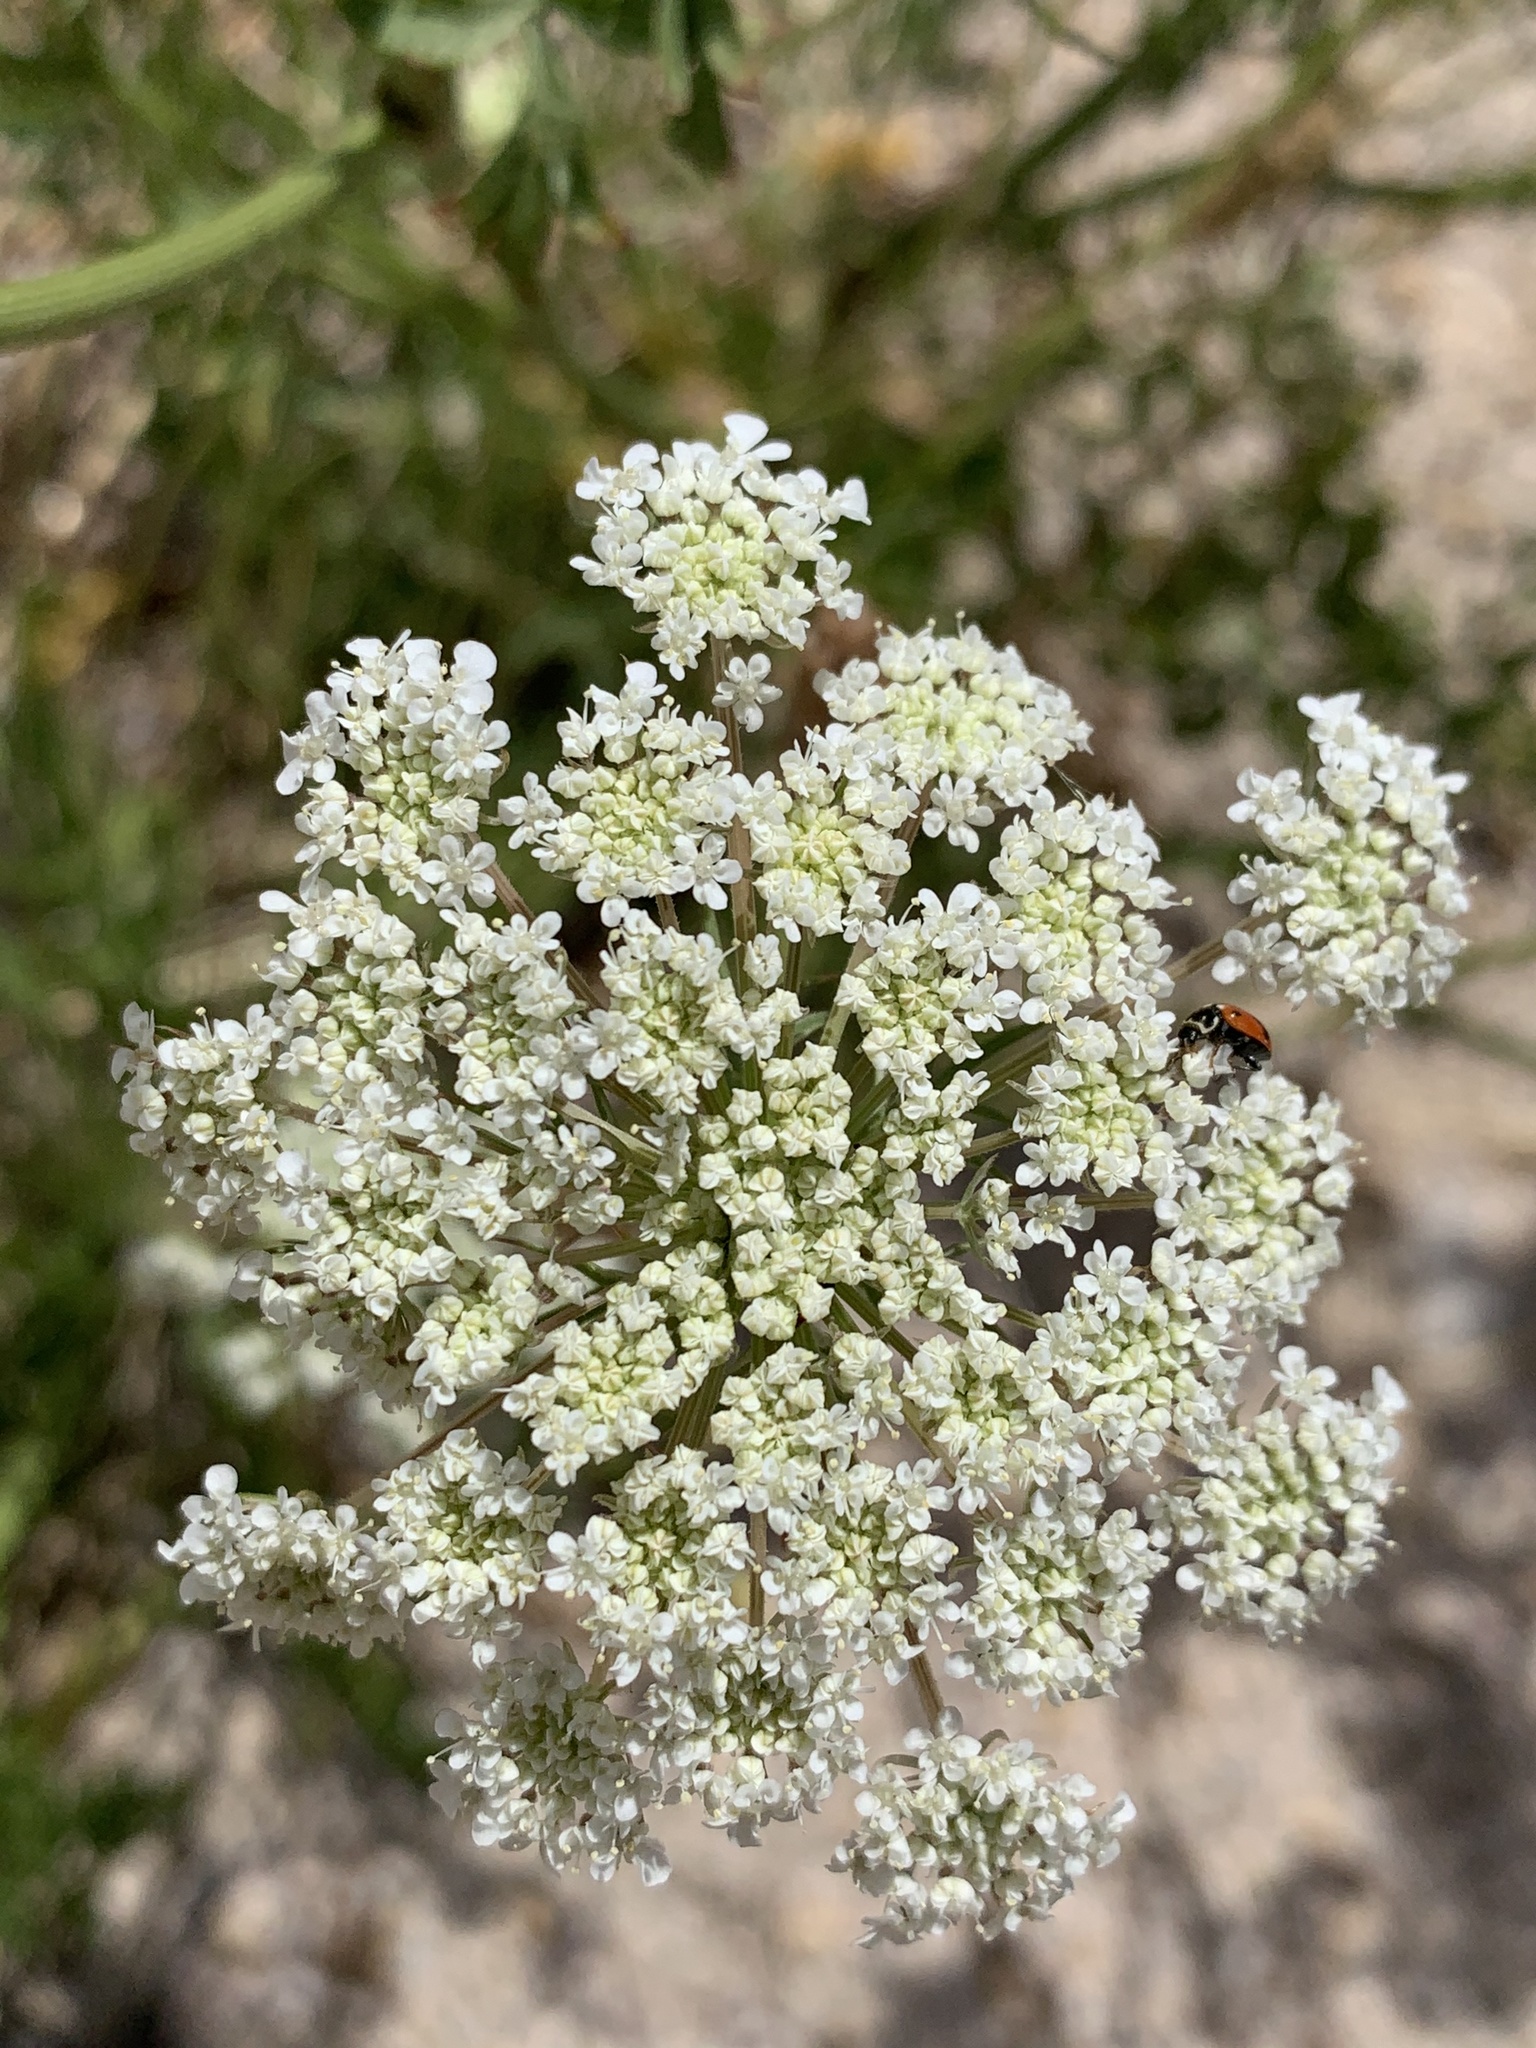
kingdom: Plantae
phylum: Tracheophyta
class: Magnoliopsida
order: Apiales
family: Apiaceae
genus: Daucus
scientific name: Daucus carota
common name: Wild carrot
